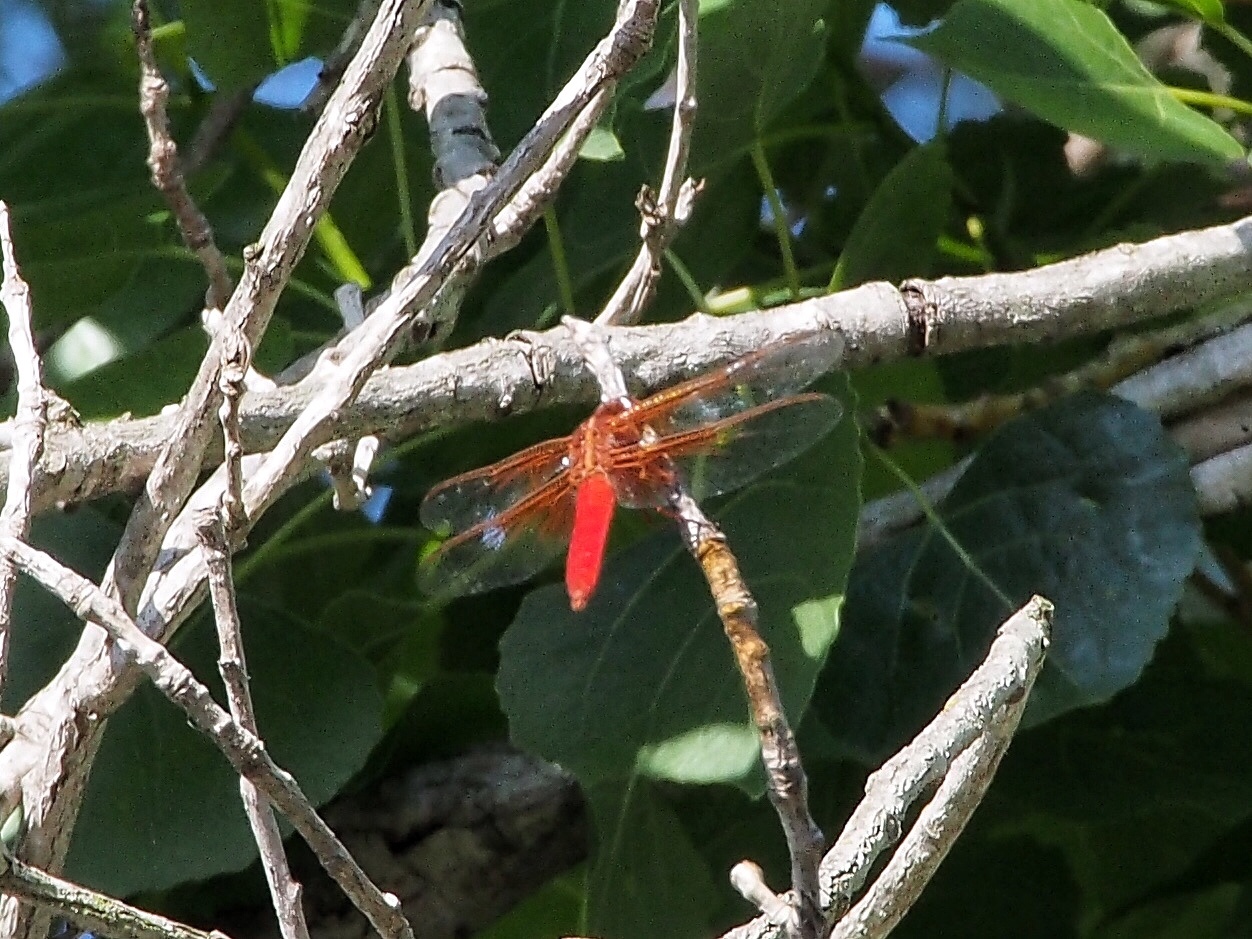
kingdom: Animalia
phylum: Arthropoda
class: Insecta
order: Odonata
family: Libellulidae
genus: Libellula
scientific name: Libellula croceipennis
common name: Neon skimmer
